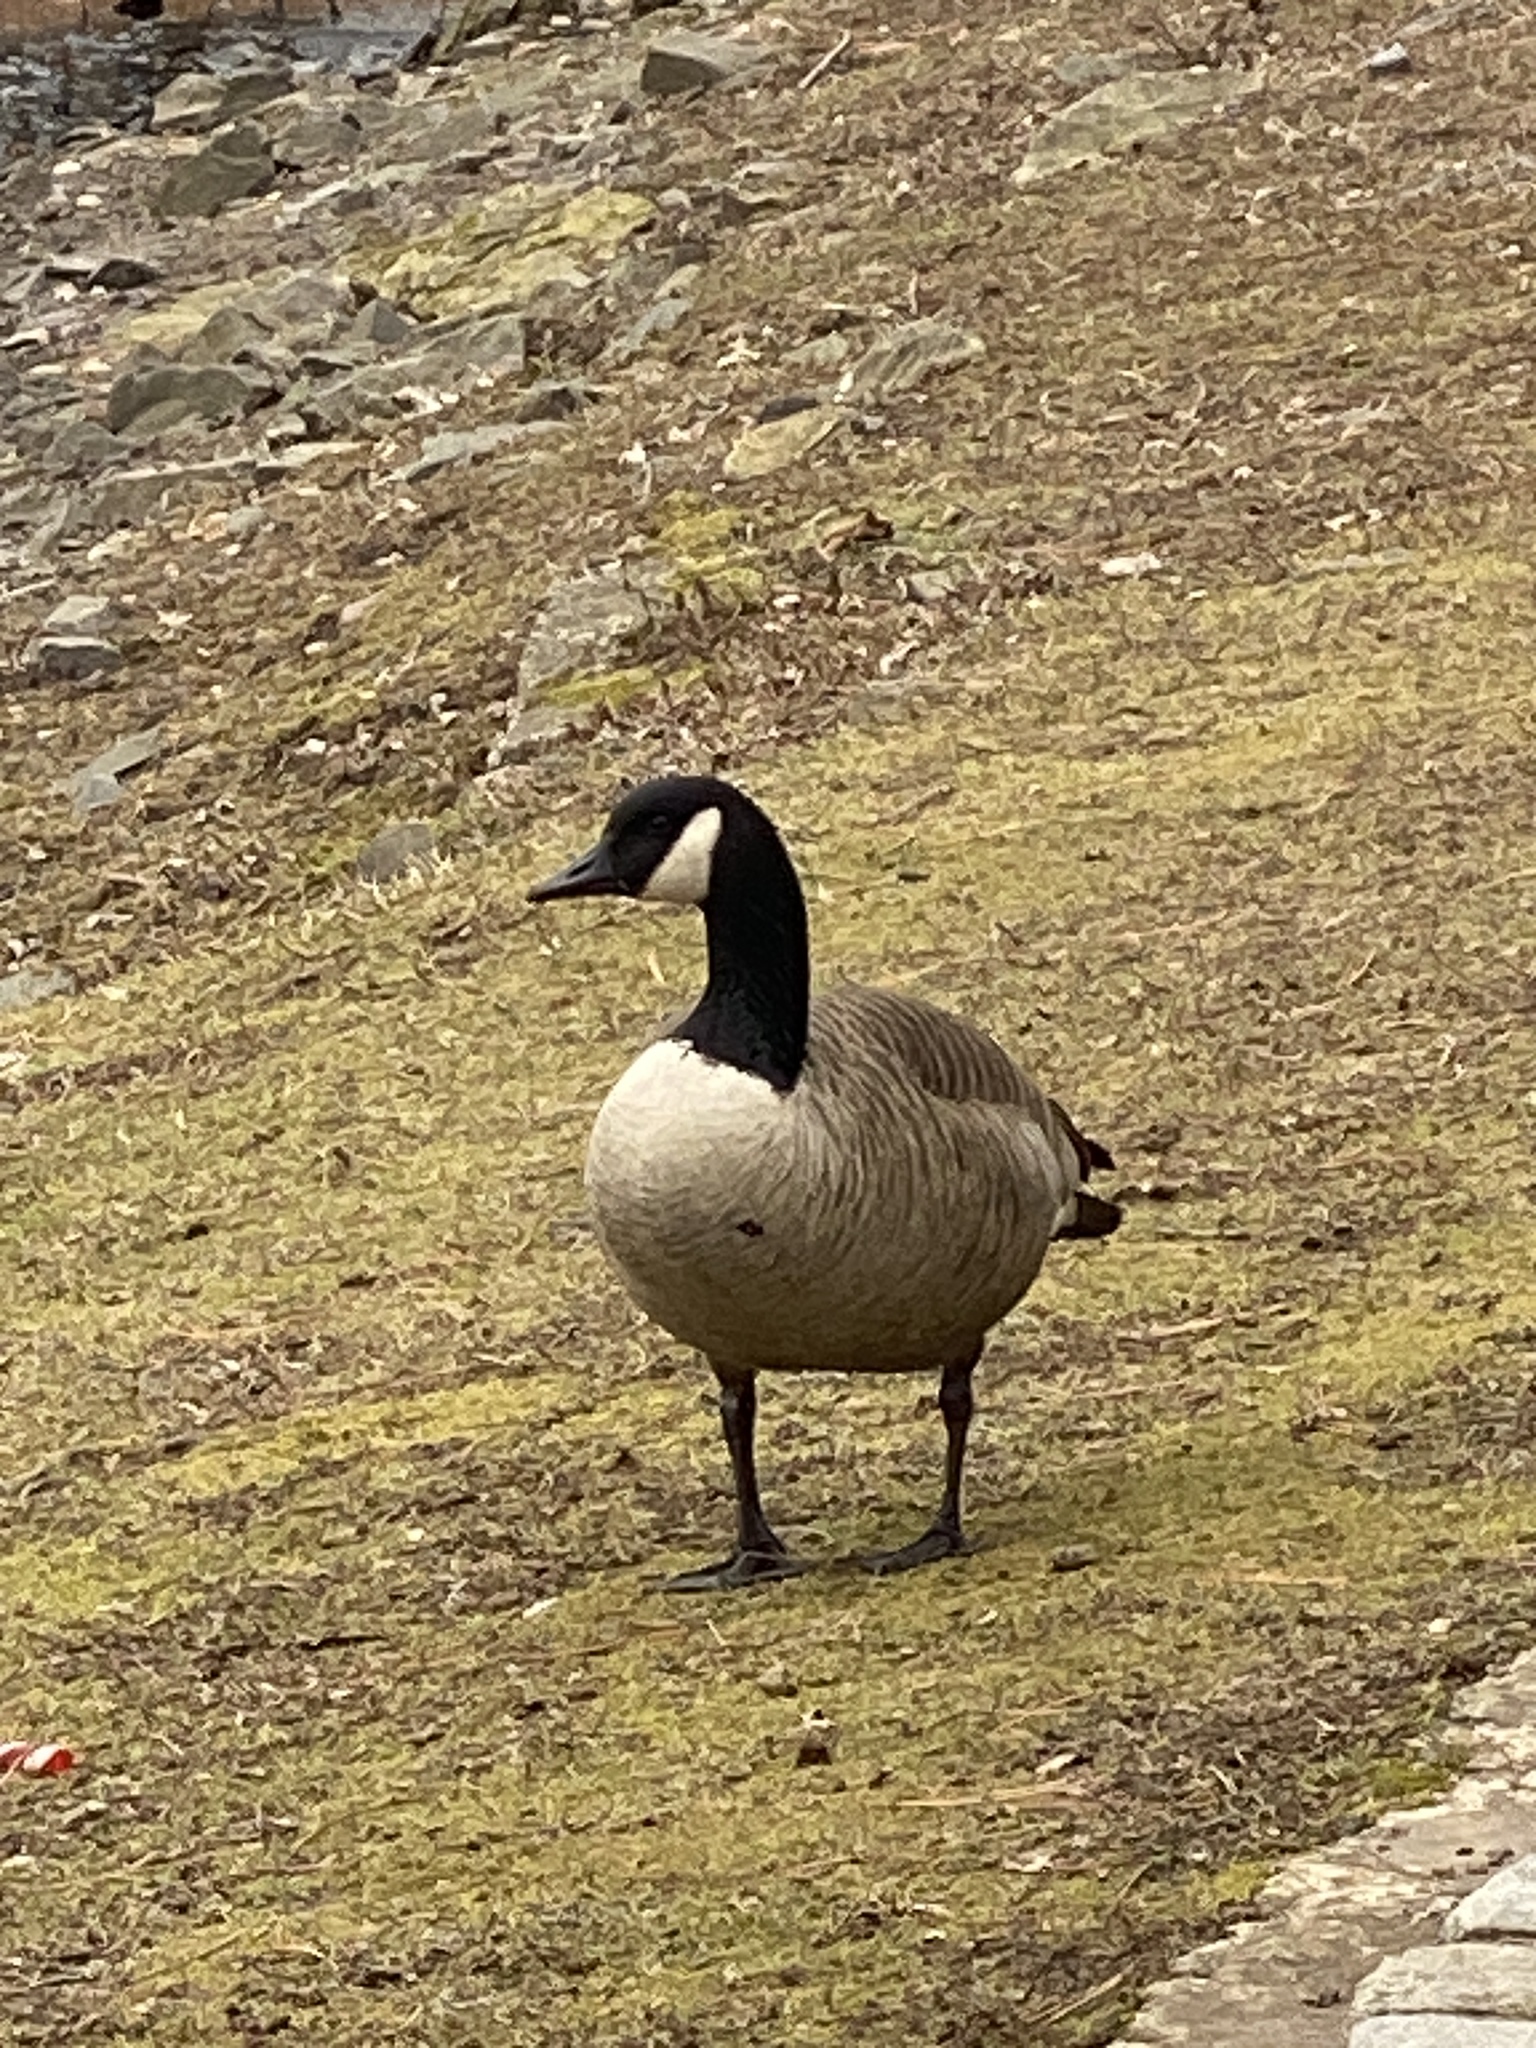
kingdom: Animalia
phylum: Chordata
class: Aves
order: Anseriformes
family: Anatidae
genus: Branta
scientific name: Branta canadensis
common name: Canada goose
